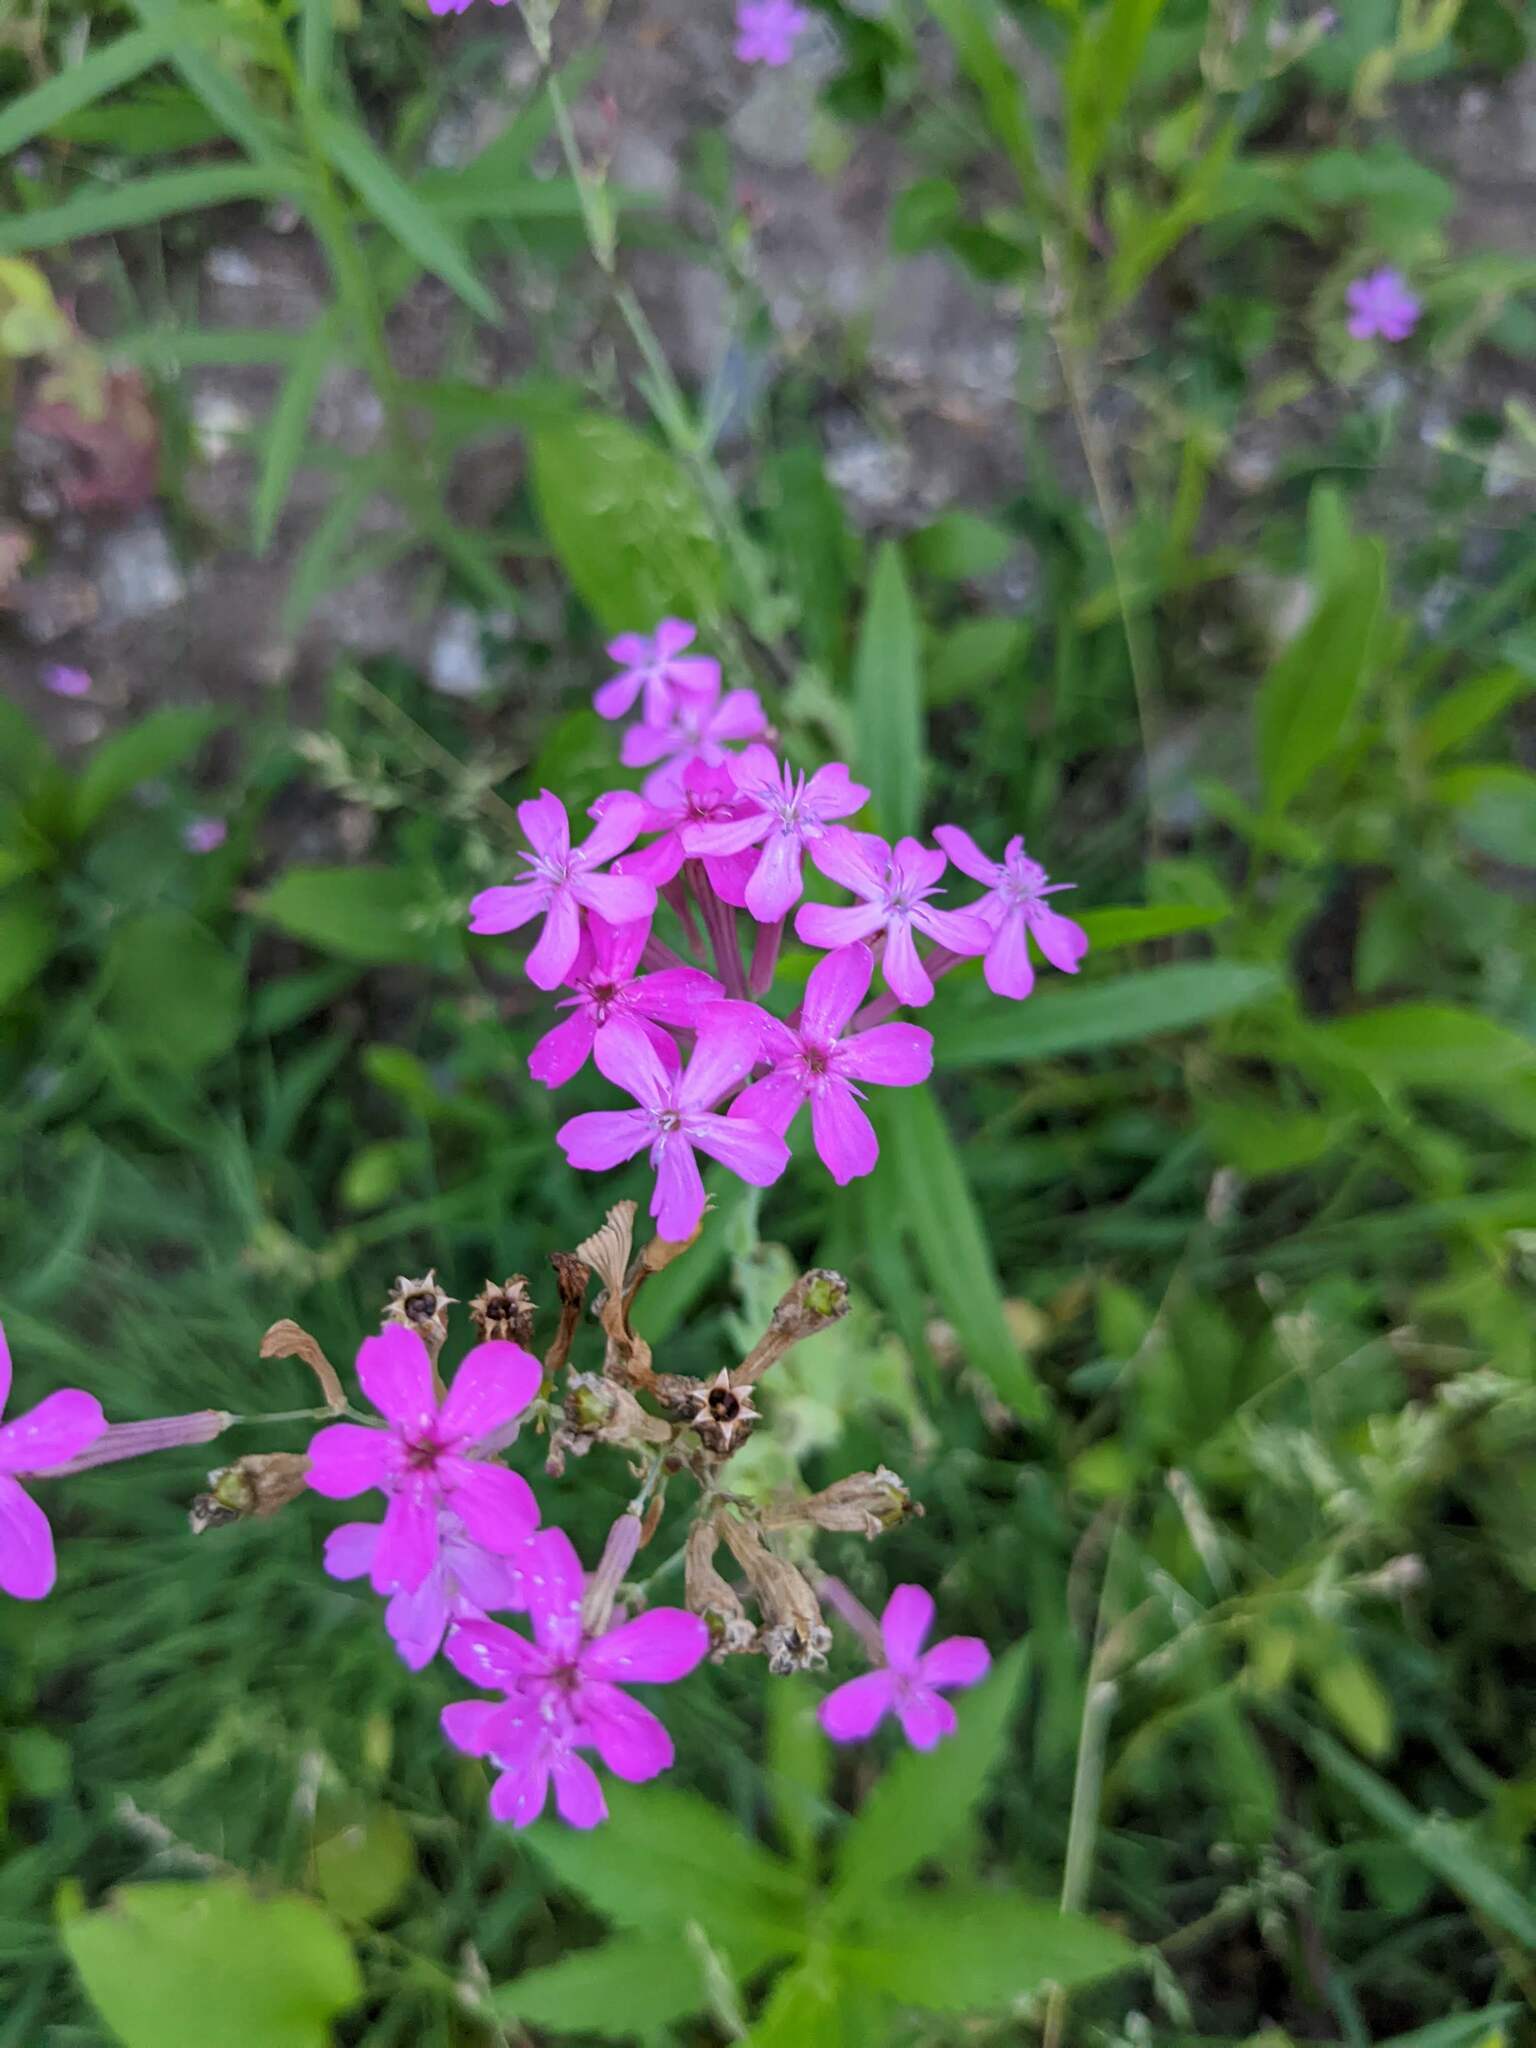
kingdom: Plantae
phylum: Tracheophyta
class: Magnoliopsida
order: Caryophyllales
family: Caryophyllaceae
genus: Atocion
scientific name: Atocion armeria
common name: Sweet william catchfly
